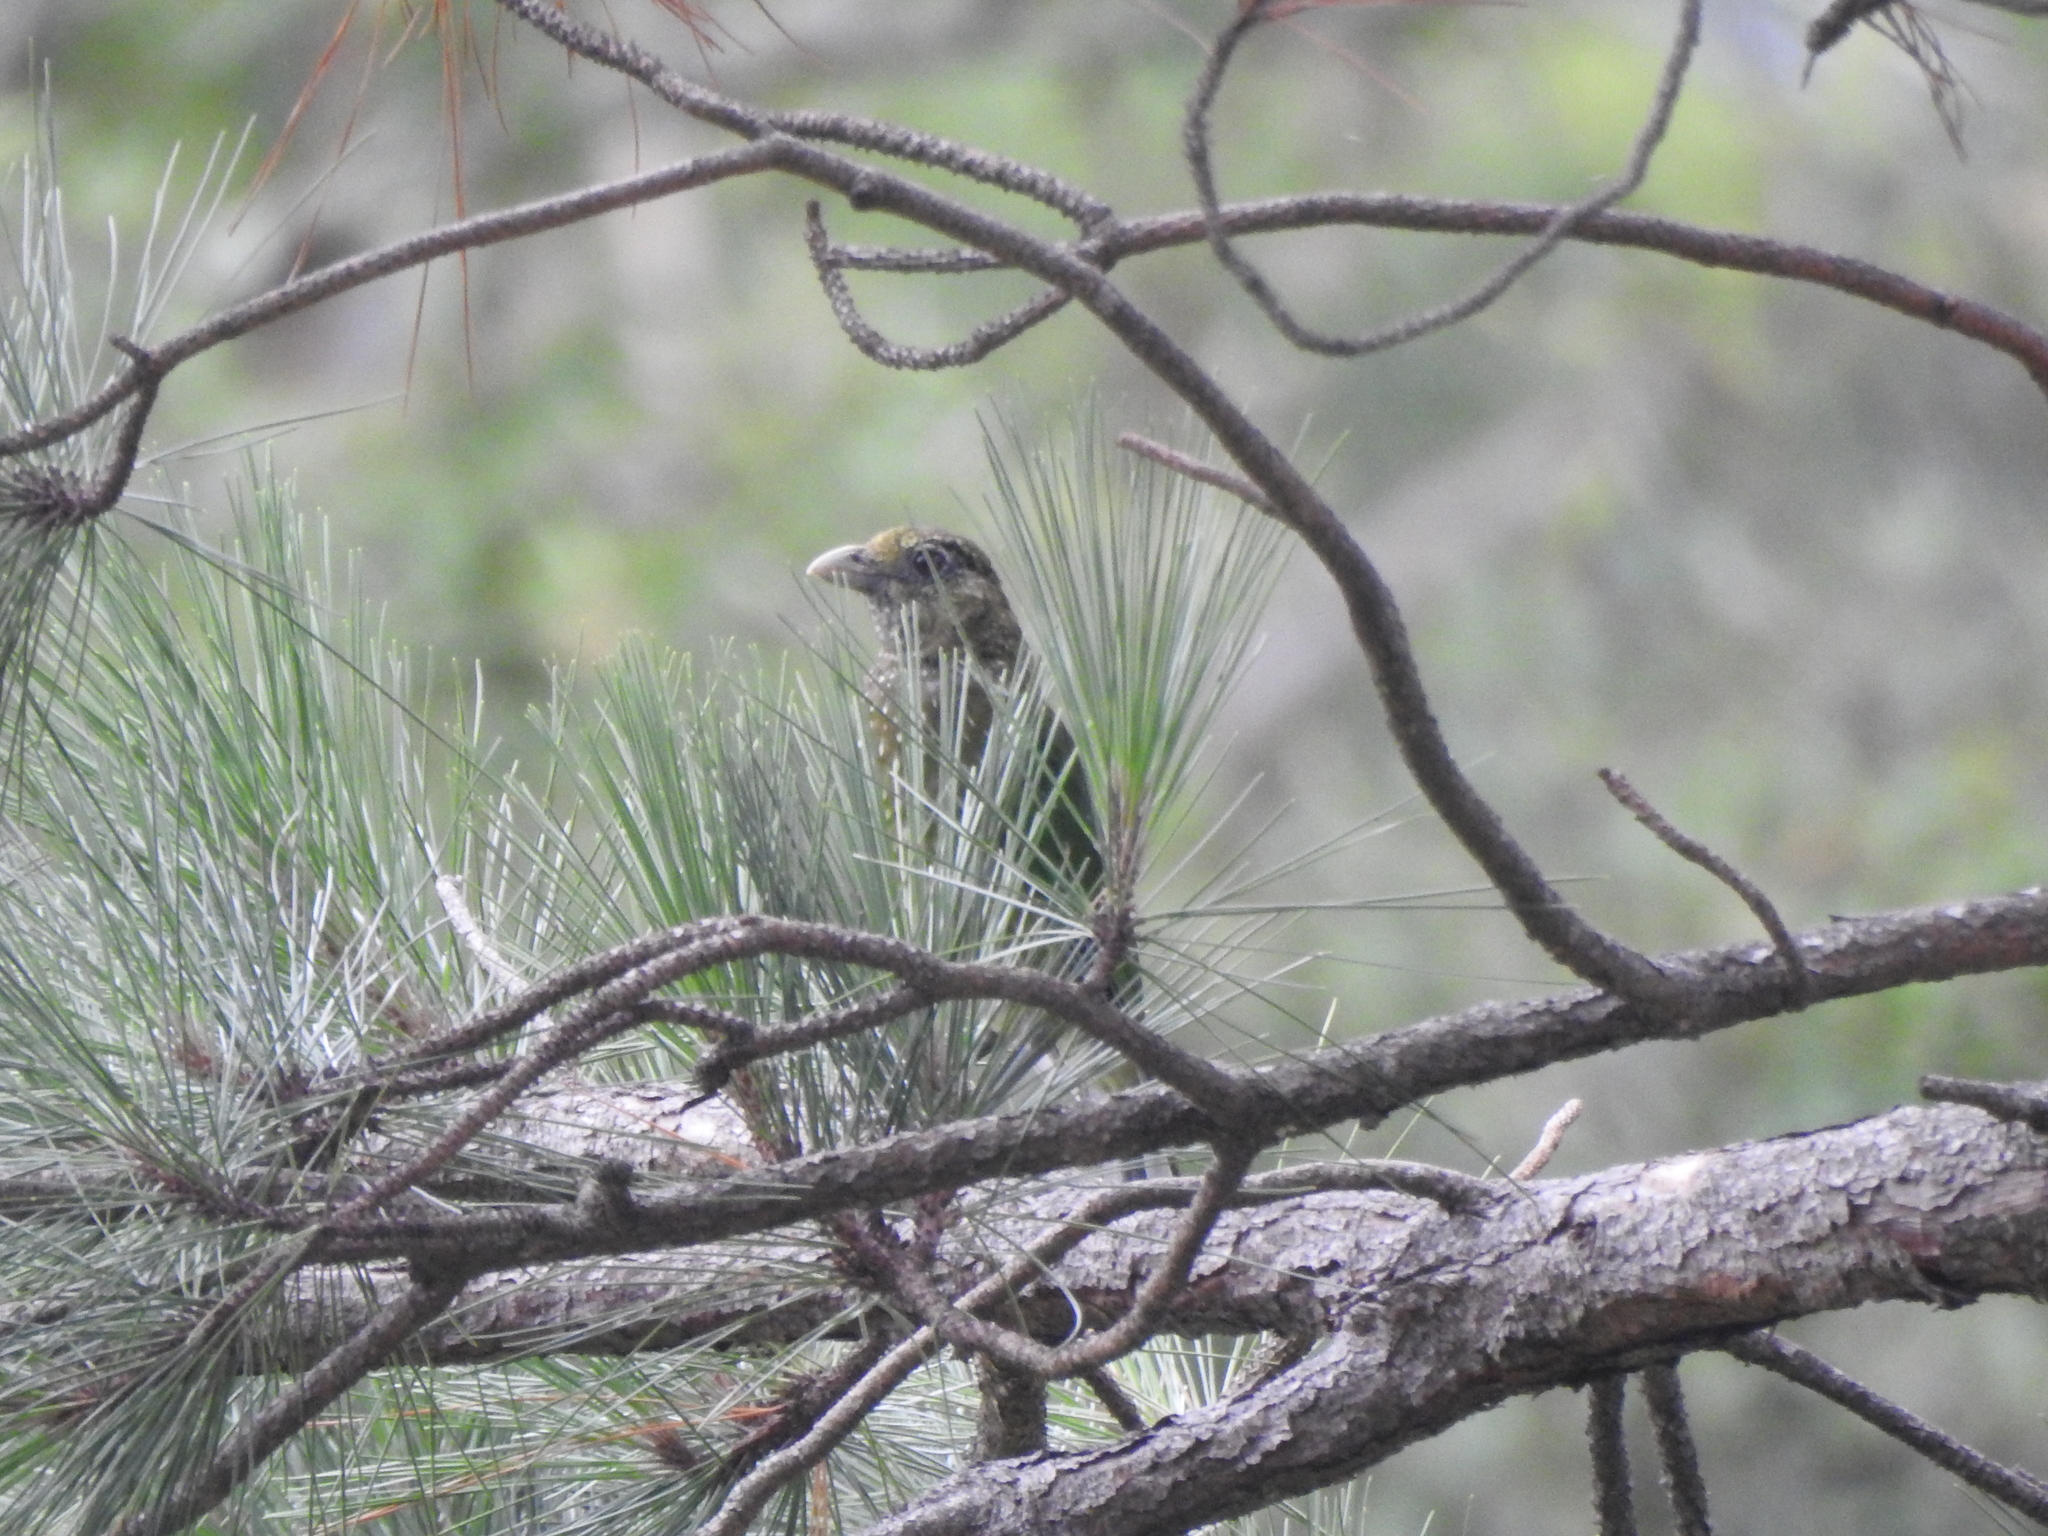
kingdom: Animalia
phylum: Chordata
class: Aves
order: Passeriformes
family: Ptilonorhynchidae
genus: Ailuroedus
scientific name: Ailuroedus crassirostris
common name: Green catbird
